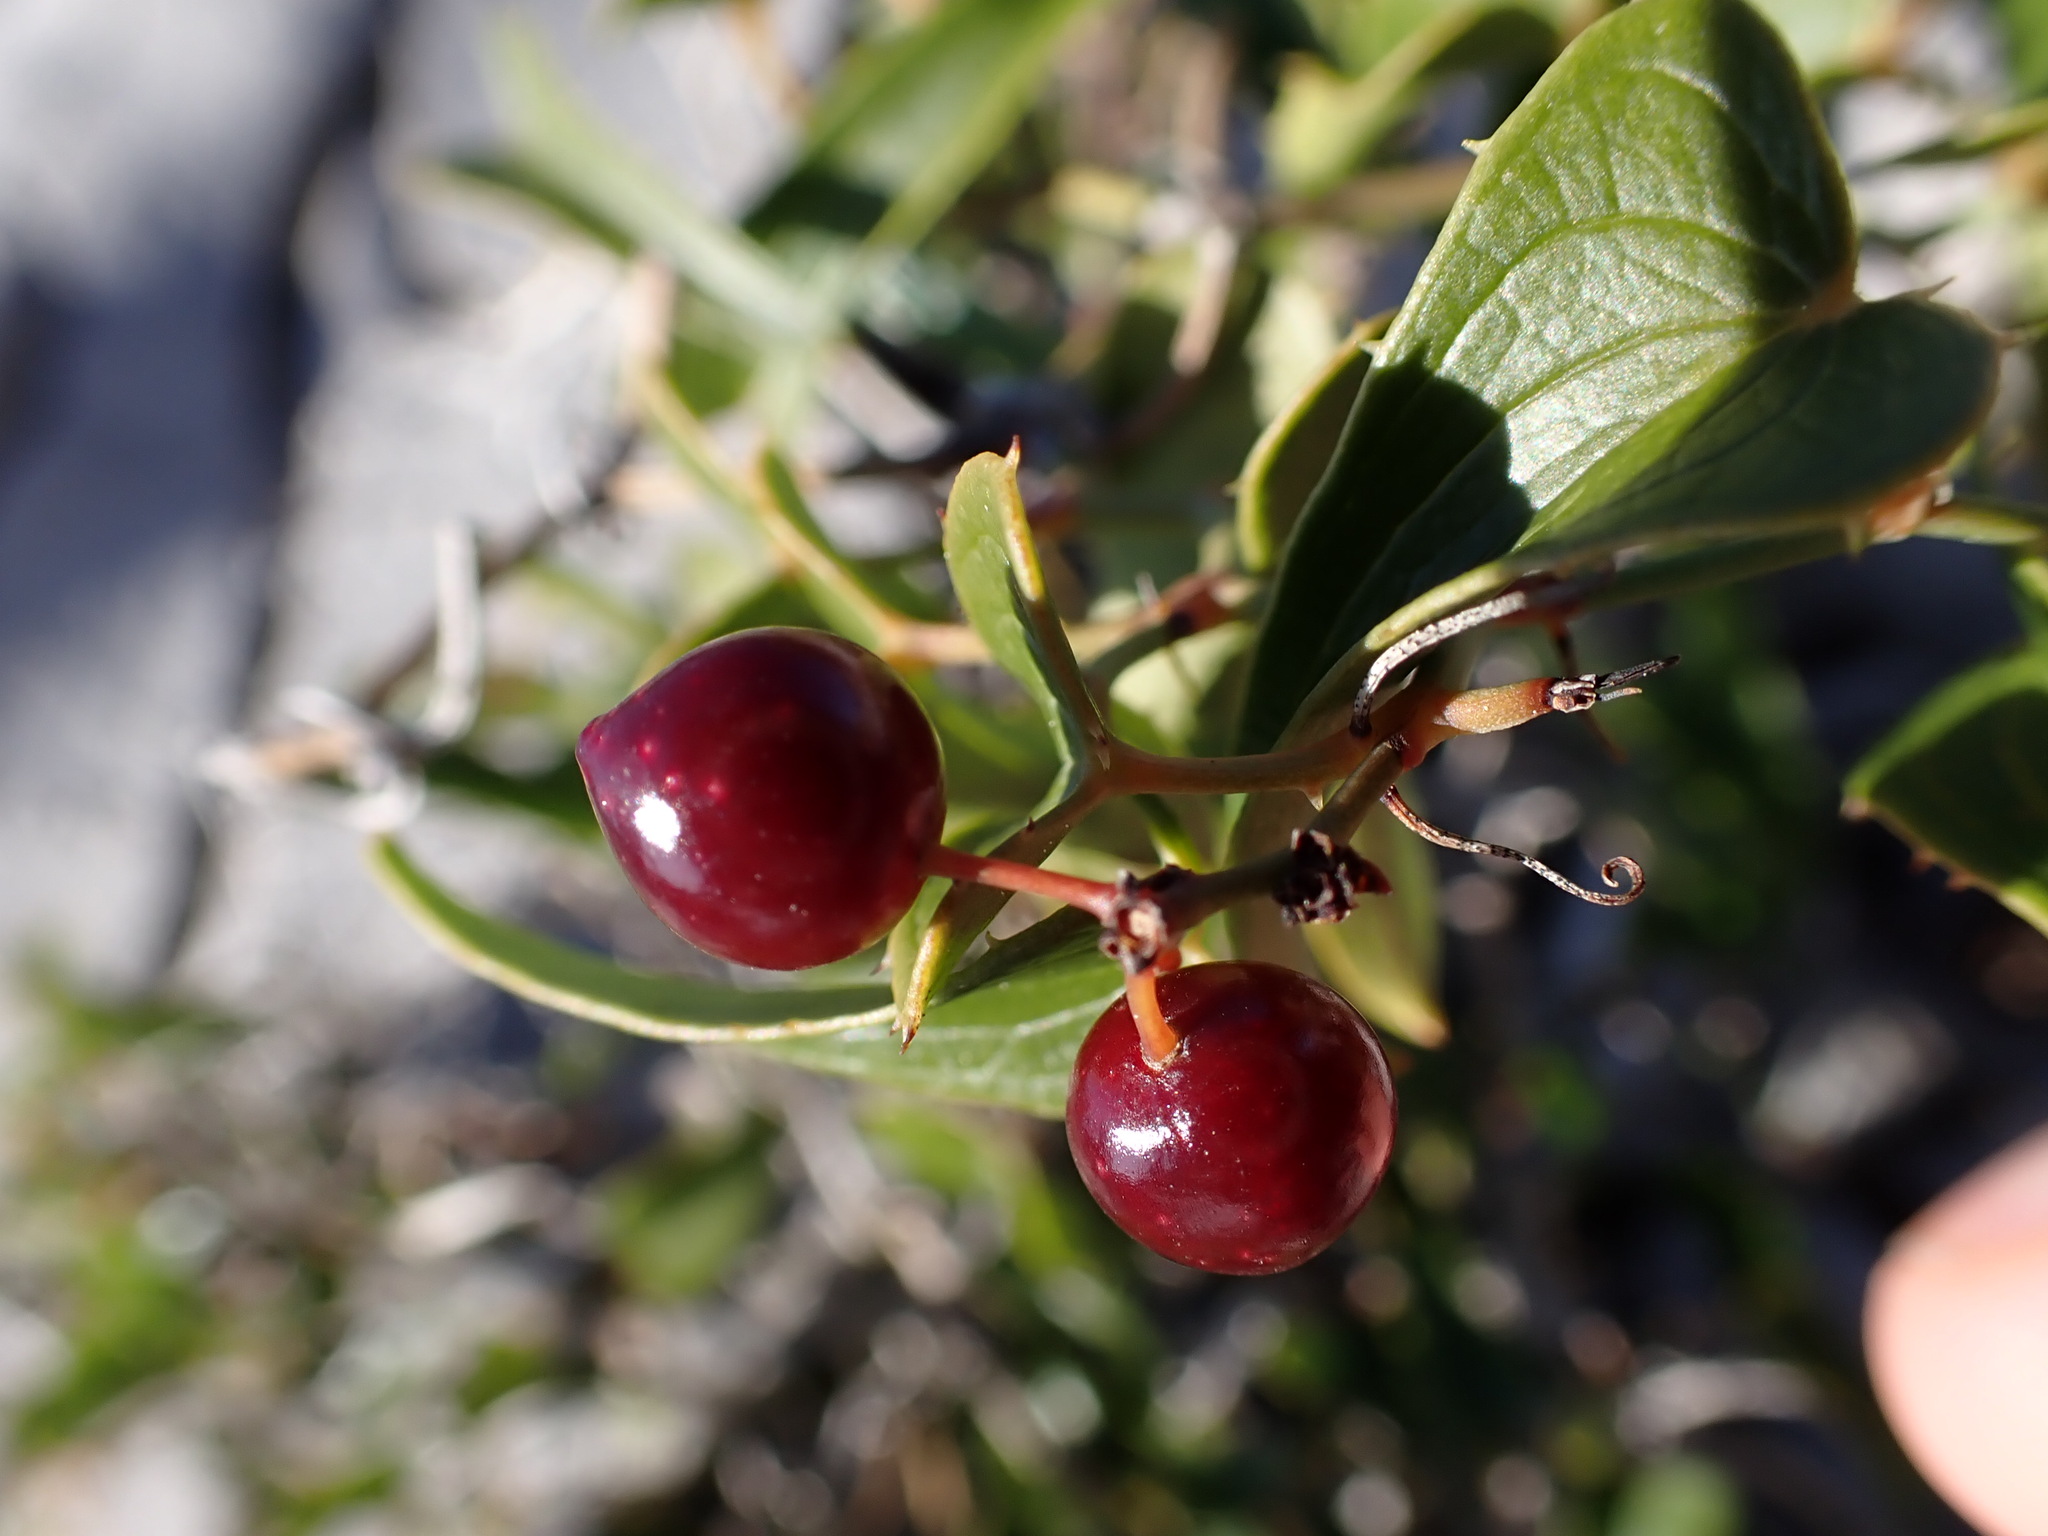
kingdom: Plantae
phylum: Tracheophyta
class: Liliopsida
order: Liliales
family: Smilacaceae
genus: Smilax
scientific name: Smilax aspera
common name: Common smilax
